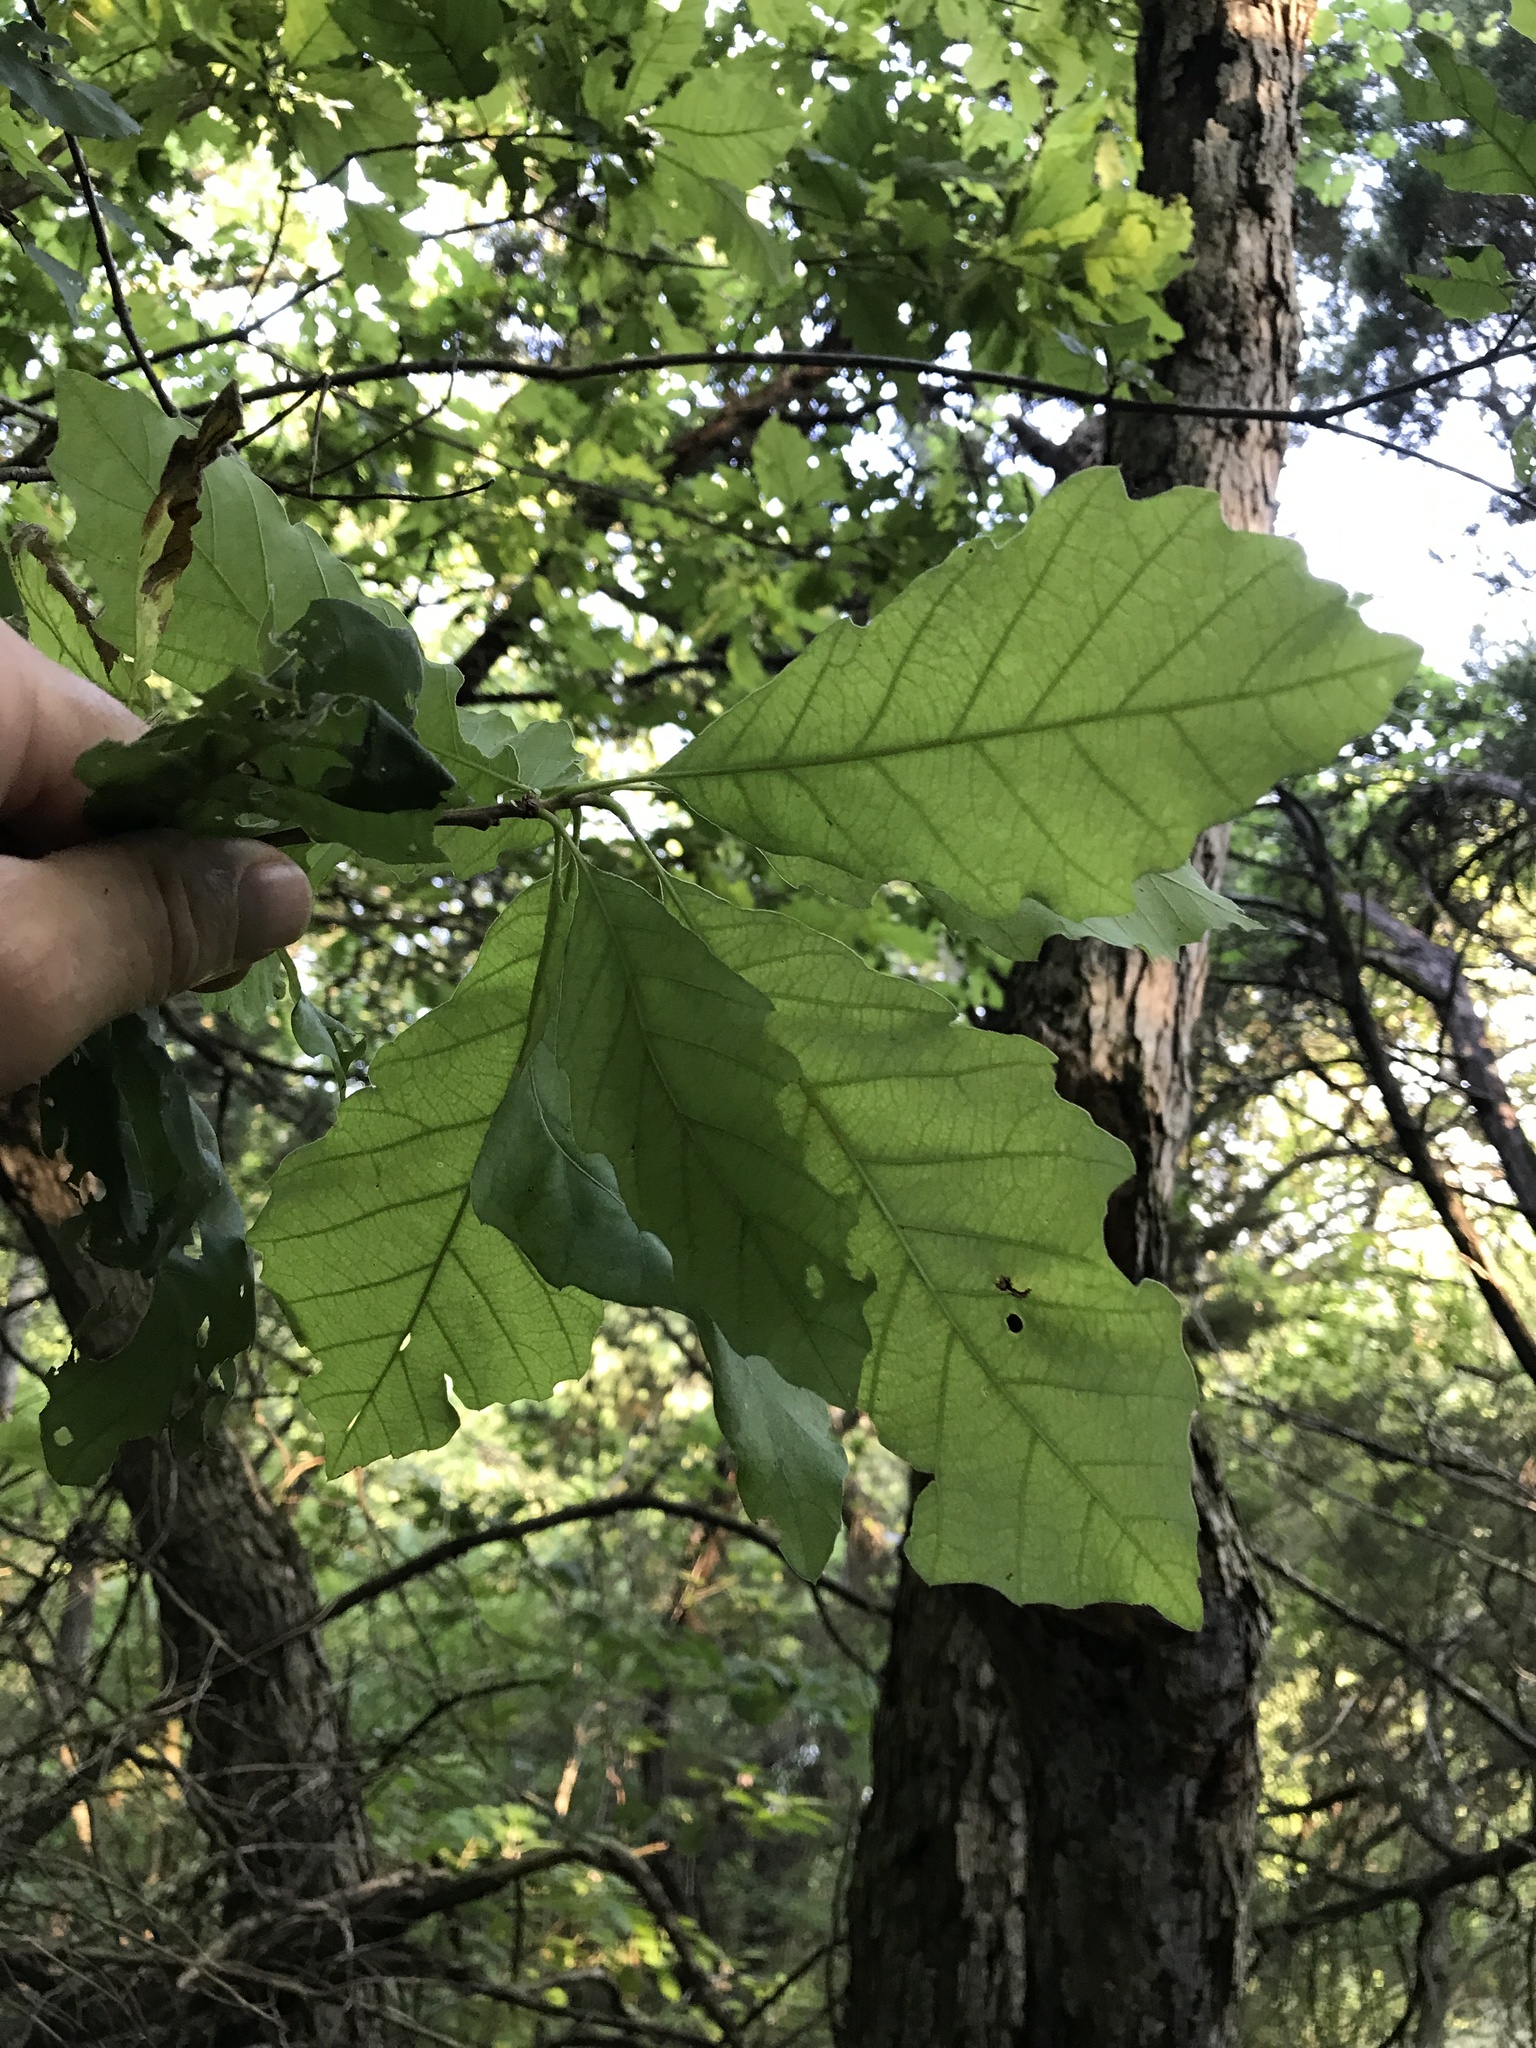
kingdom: Plantae
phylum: Tracheophyta
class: Magnoliopsida
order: Fagales
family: Fagaceae
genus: Quercus
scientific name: Quercus muehlenbergii
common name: Chinkapin oak
